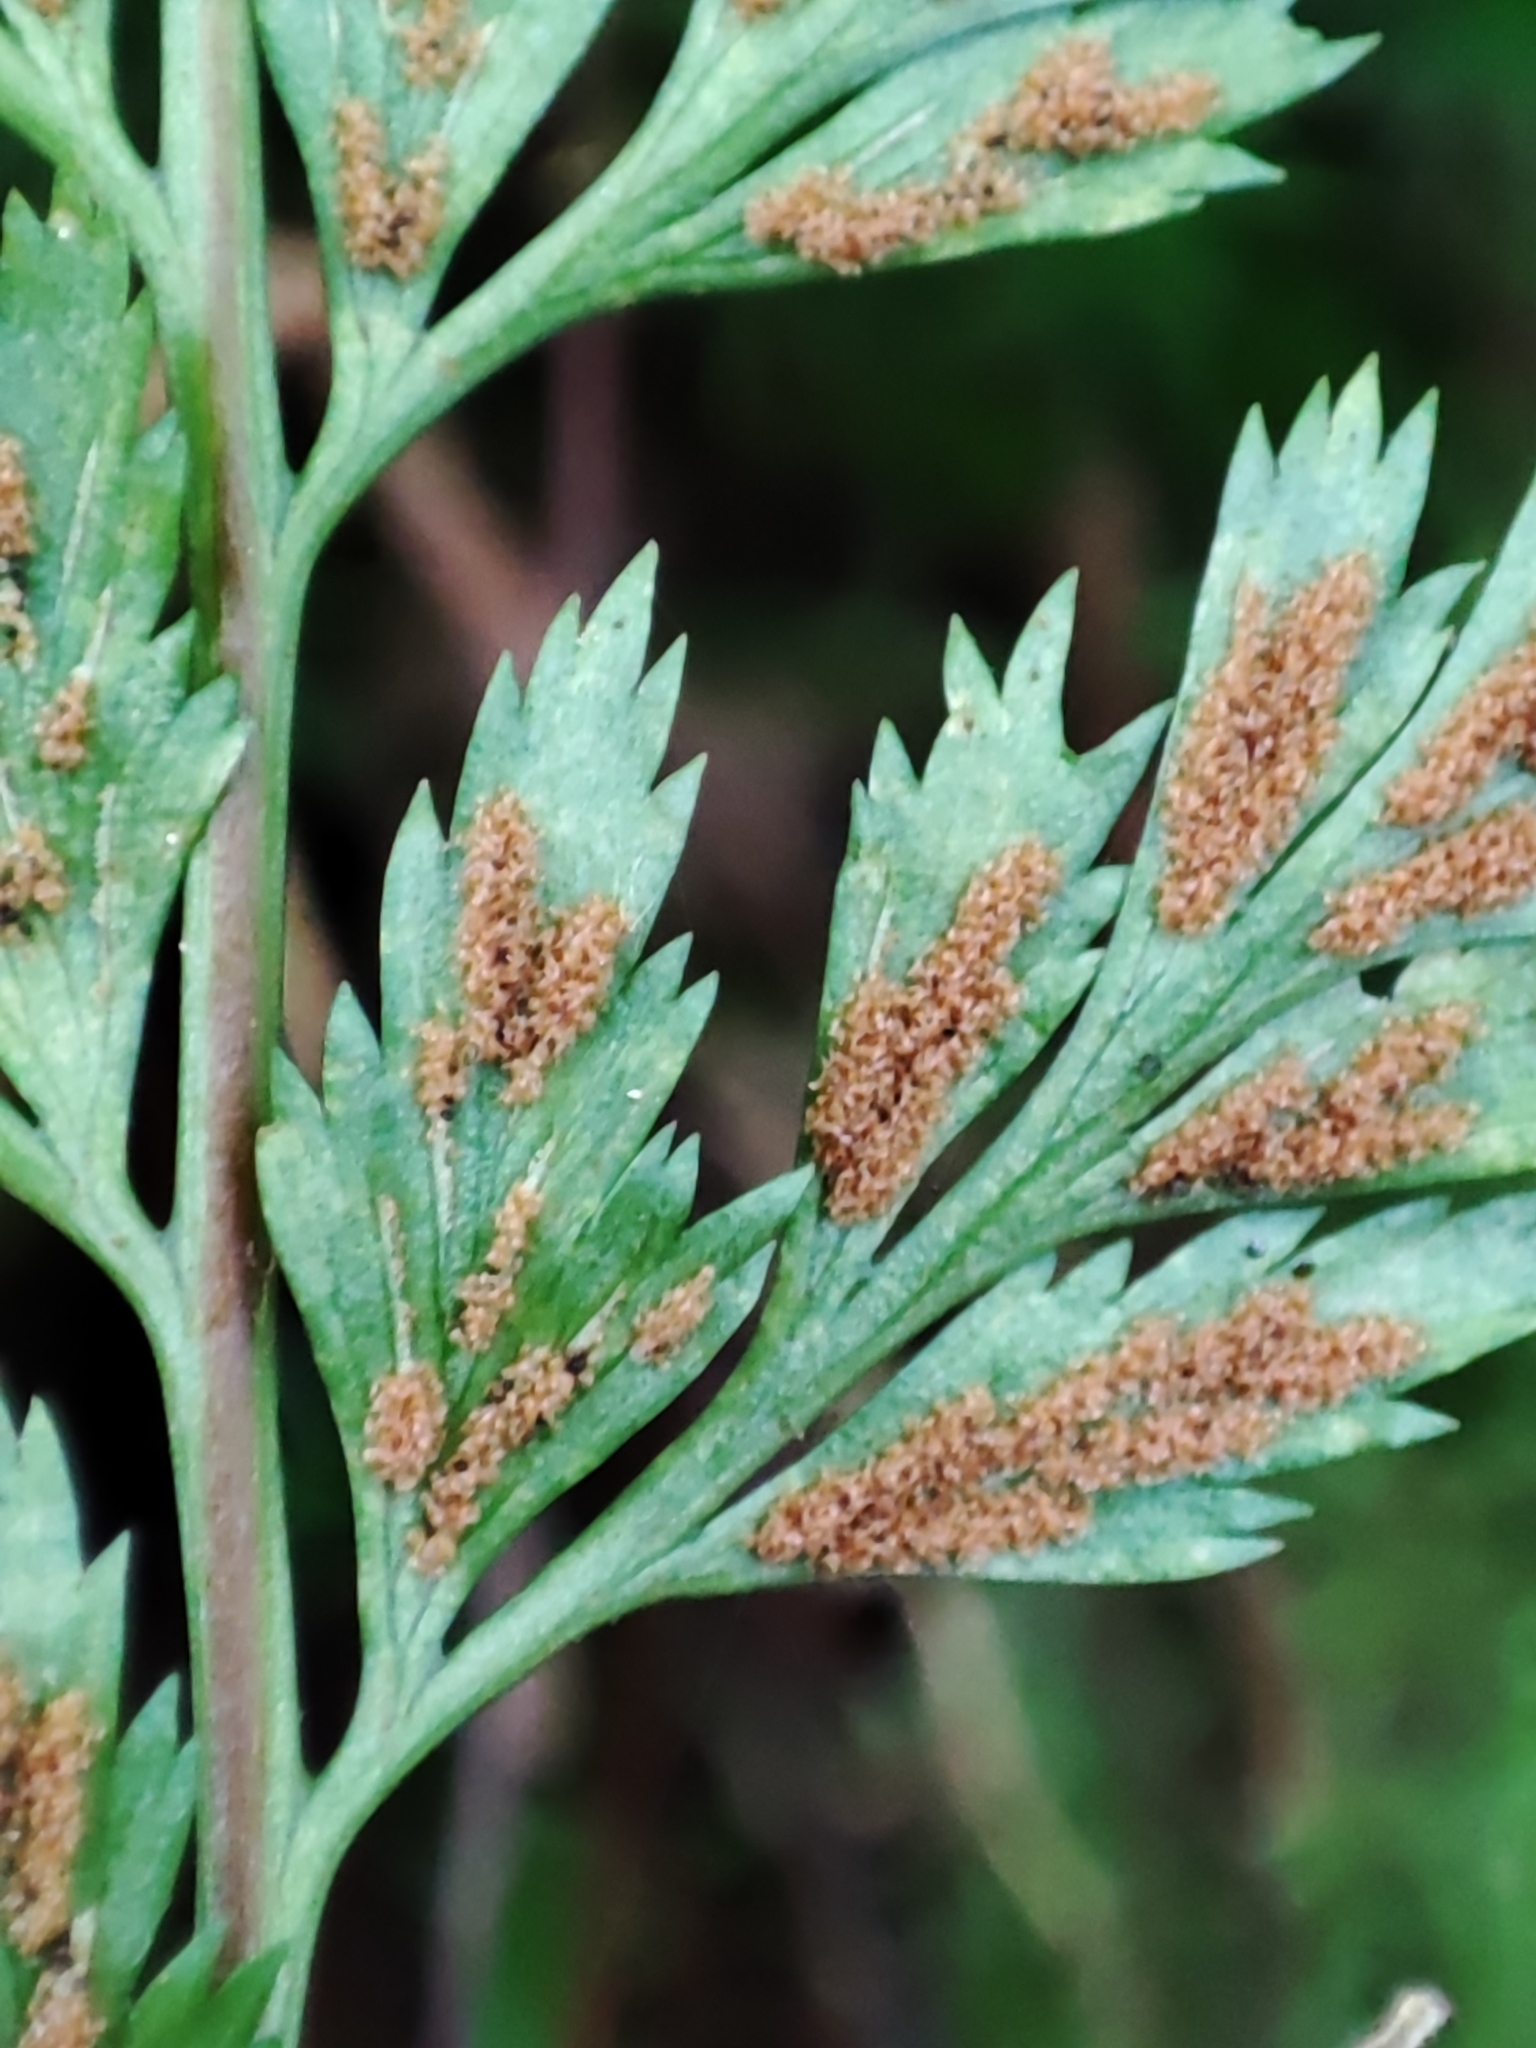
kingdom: Plantae
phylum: Tracheophyta
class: Polypodiopsida
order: Polypodiales
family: Aspleniaceae
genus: Asplenium
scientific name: Asplenium adiantum-nigrum
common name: Black spleenwort
